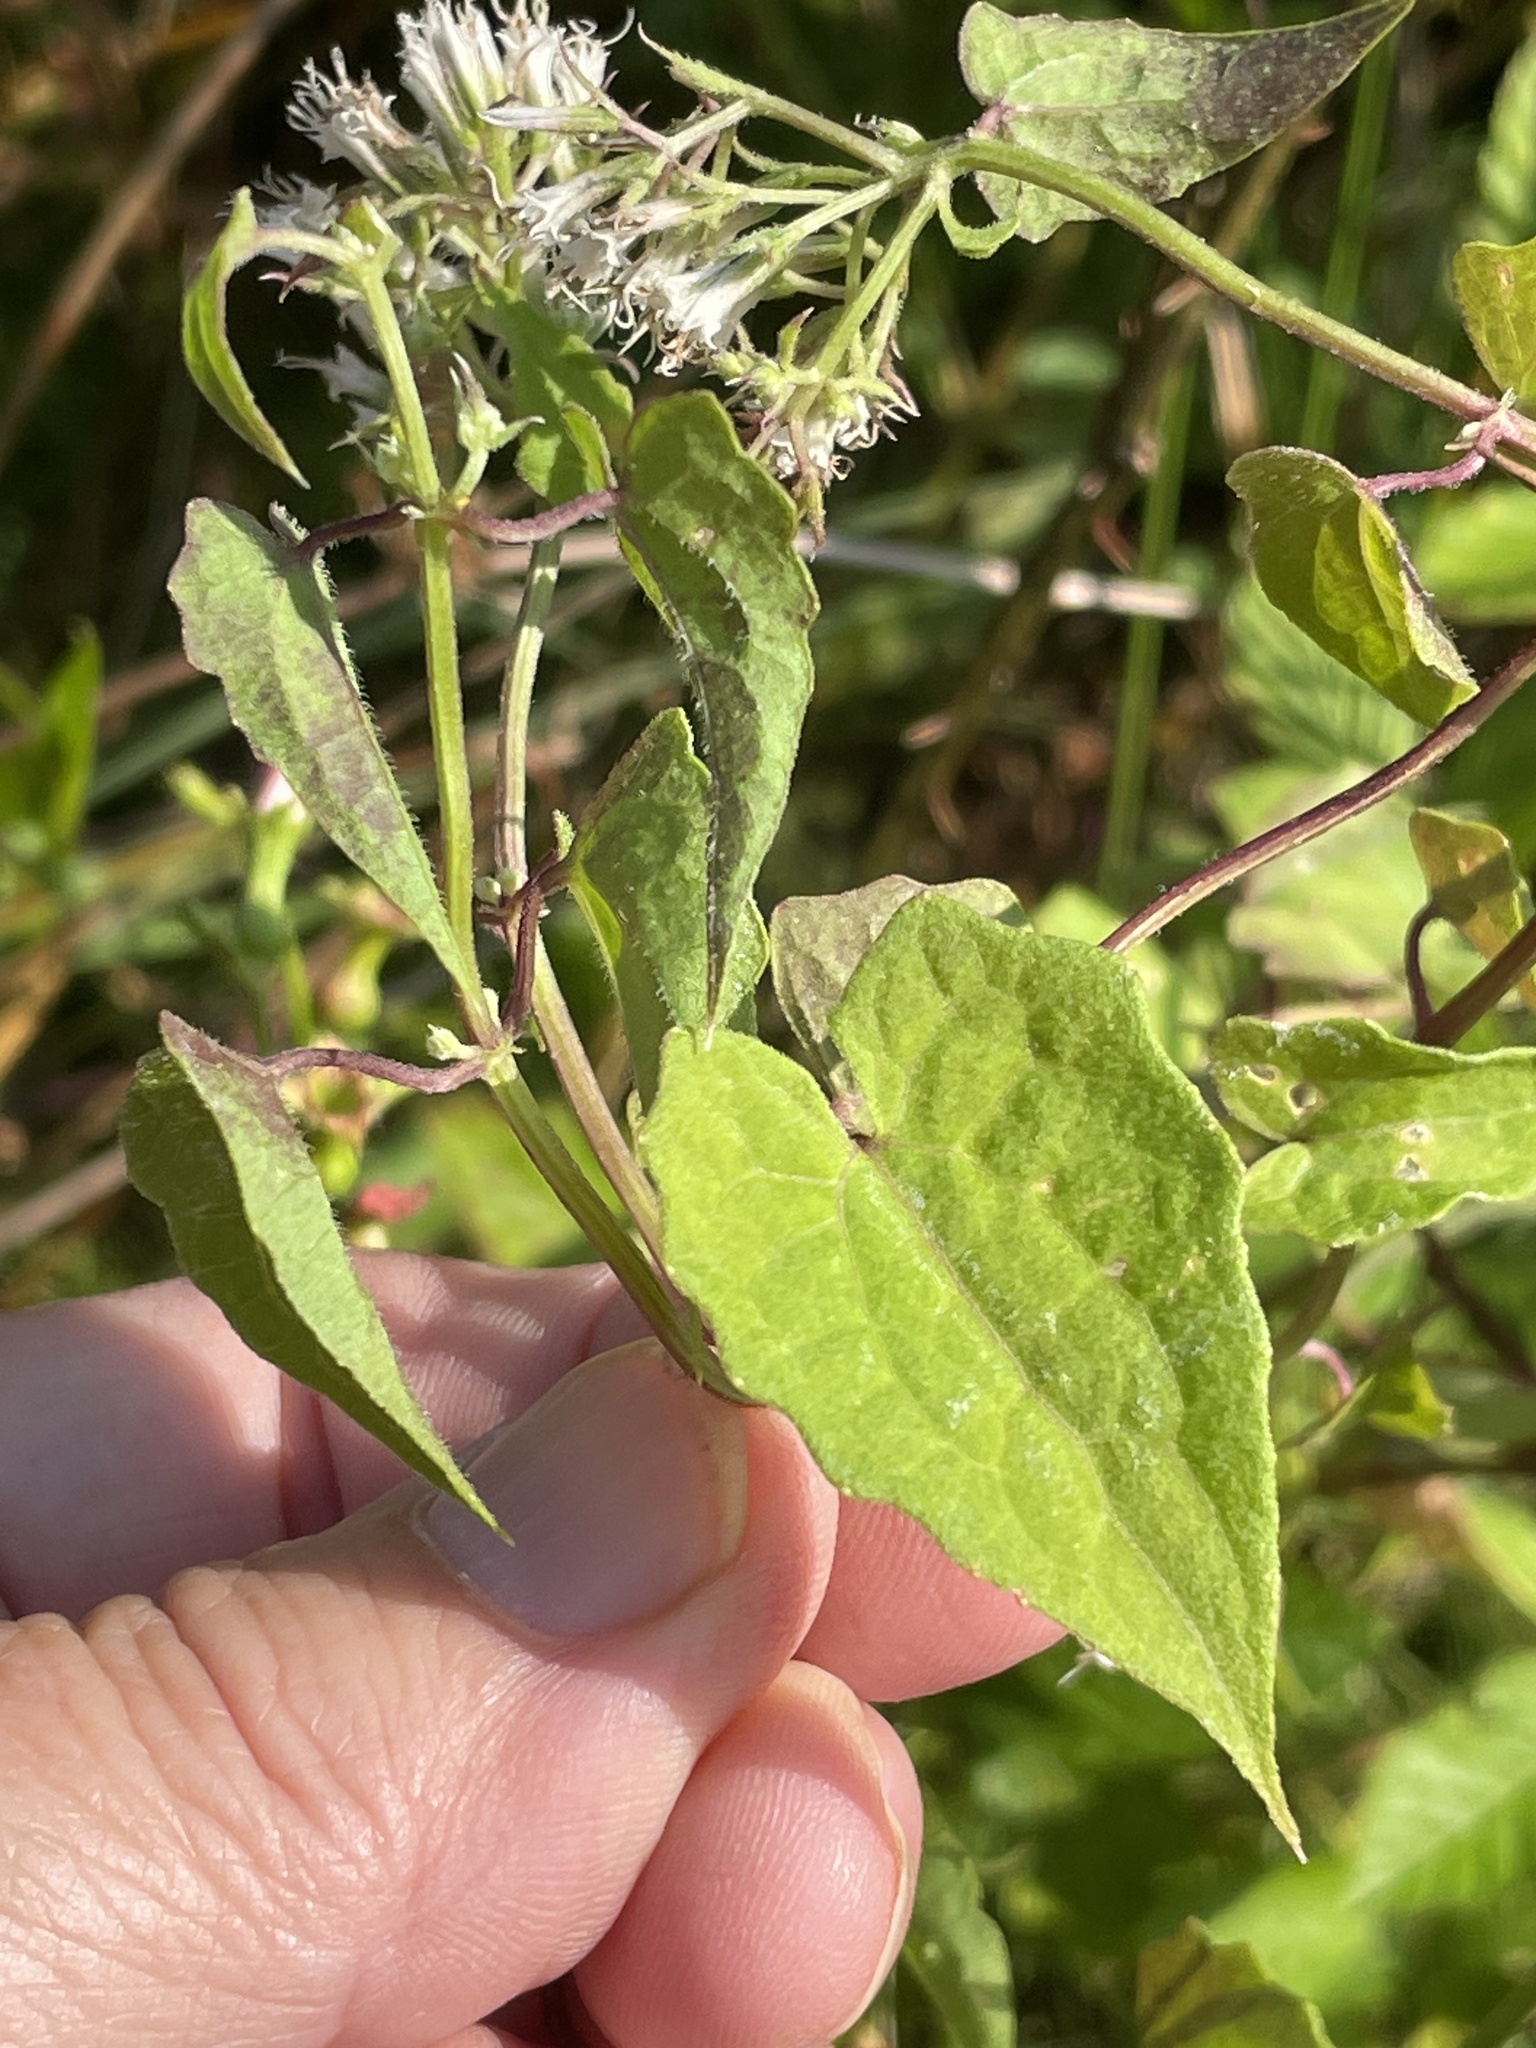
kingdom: Plantae
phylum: Tracheophyta
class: Magnoliopsida
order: Asterales
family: Asteraceae
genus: Mikania
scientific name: Mikania scandens
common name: Climbing hempvine
